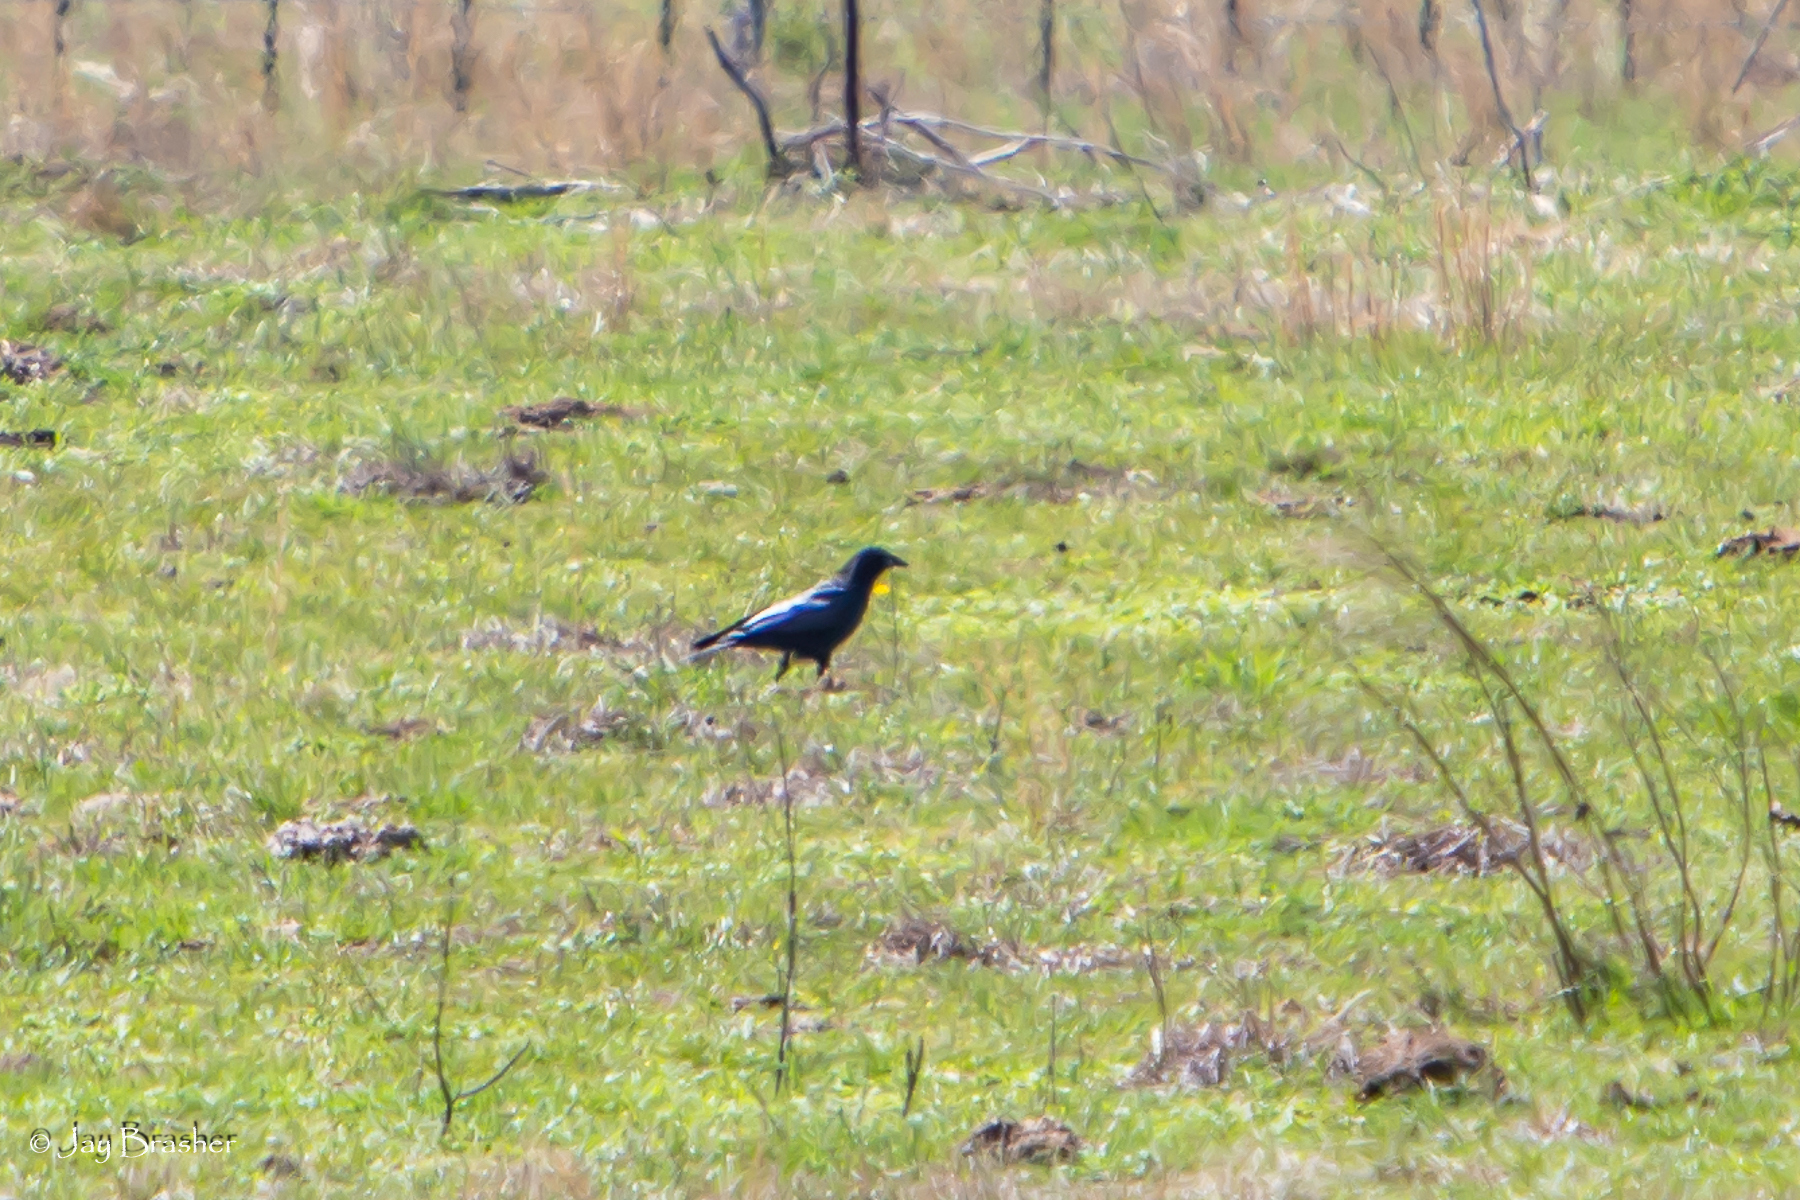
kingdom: Animalia
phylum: Chordata
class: Aves
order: Passeriformes
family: Corvidae
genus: Corvus
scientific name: Corvus brachyrhynchos
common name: American crow
